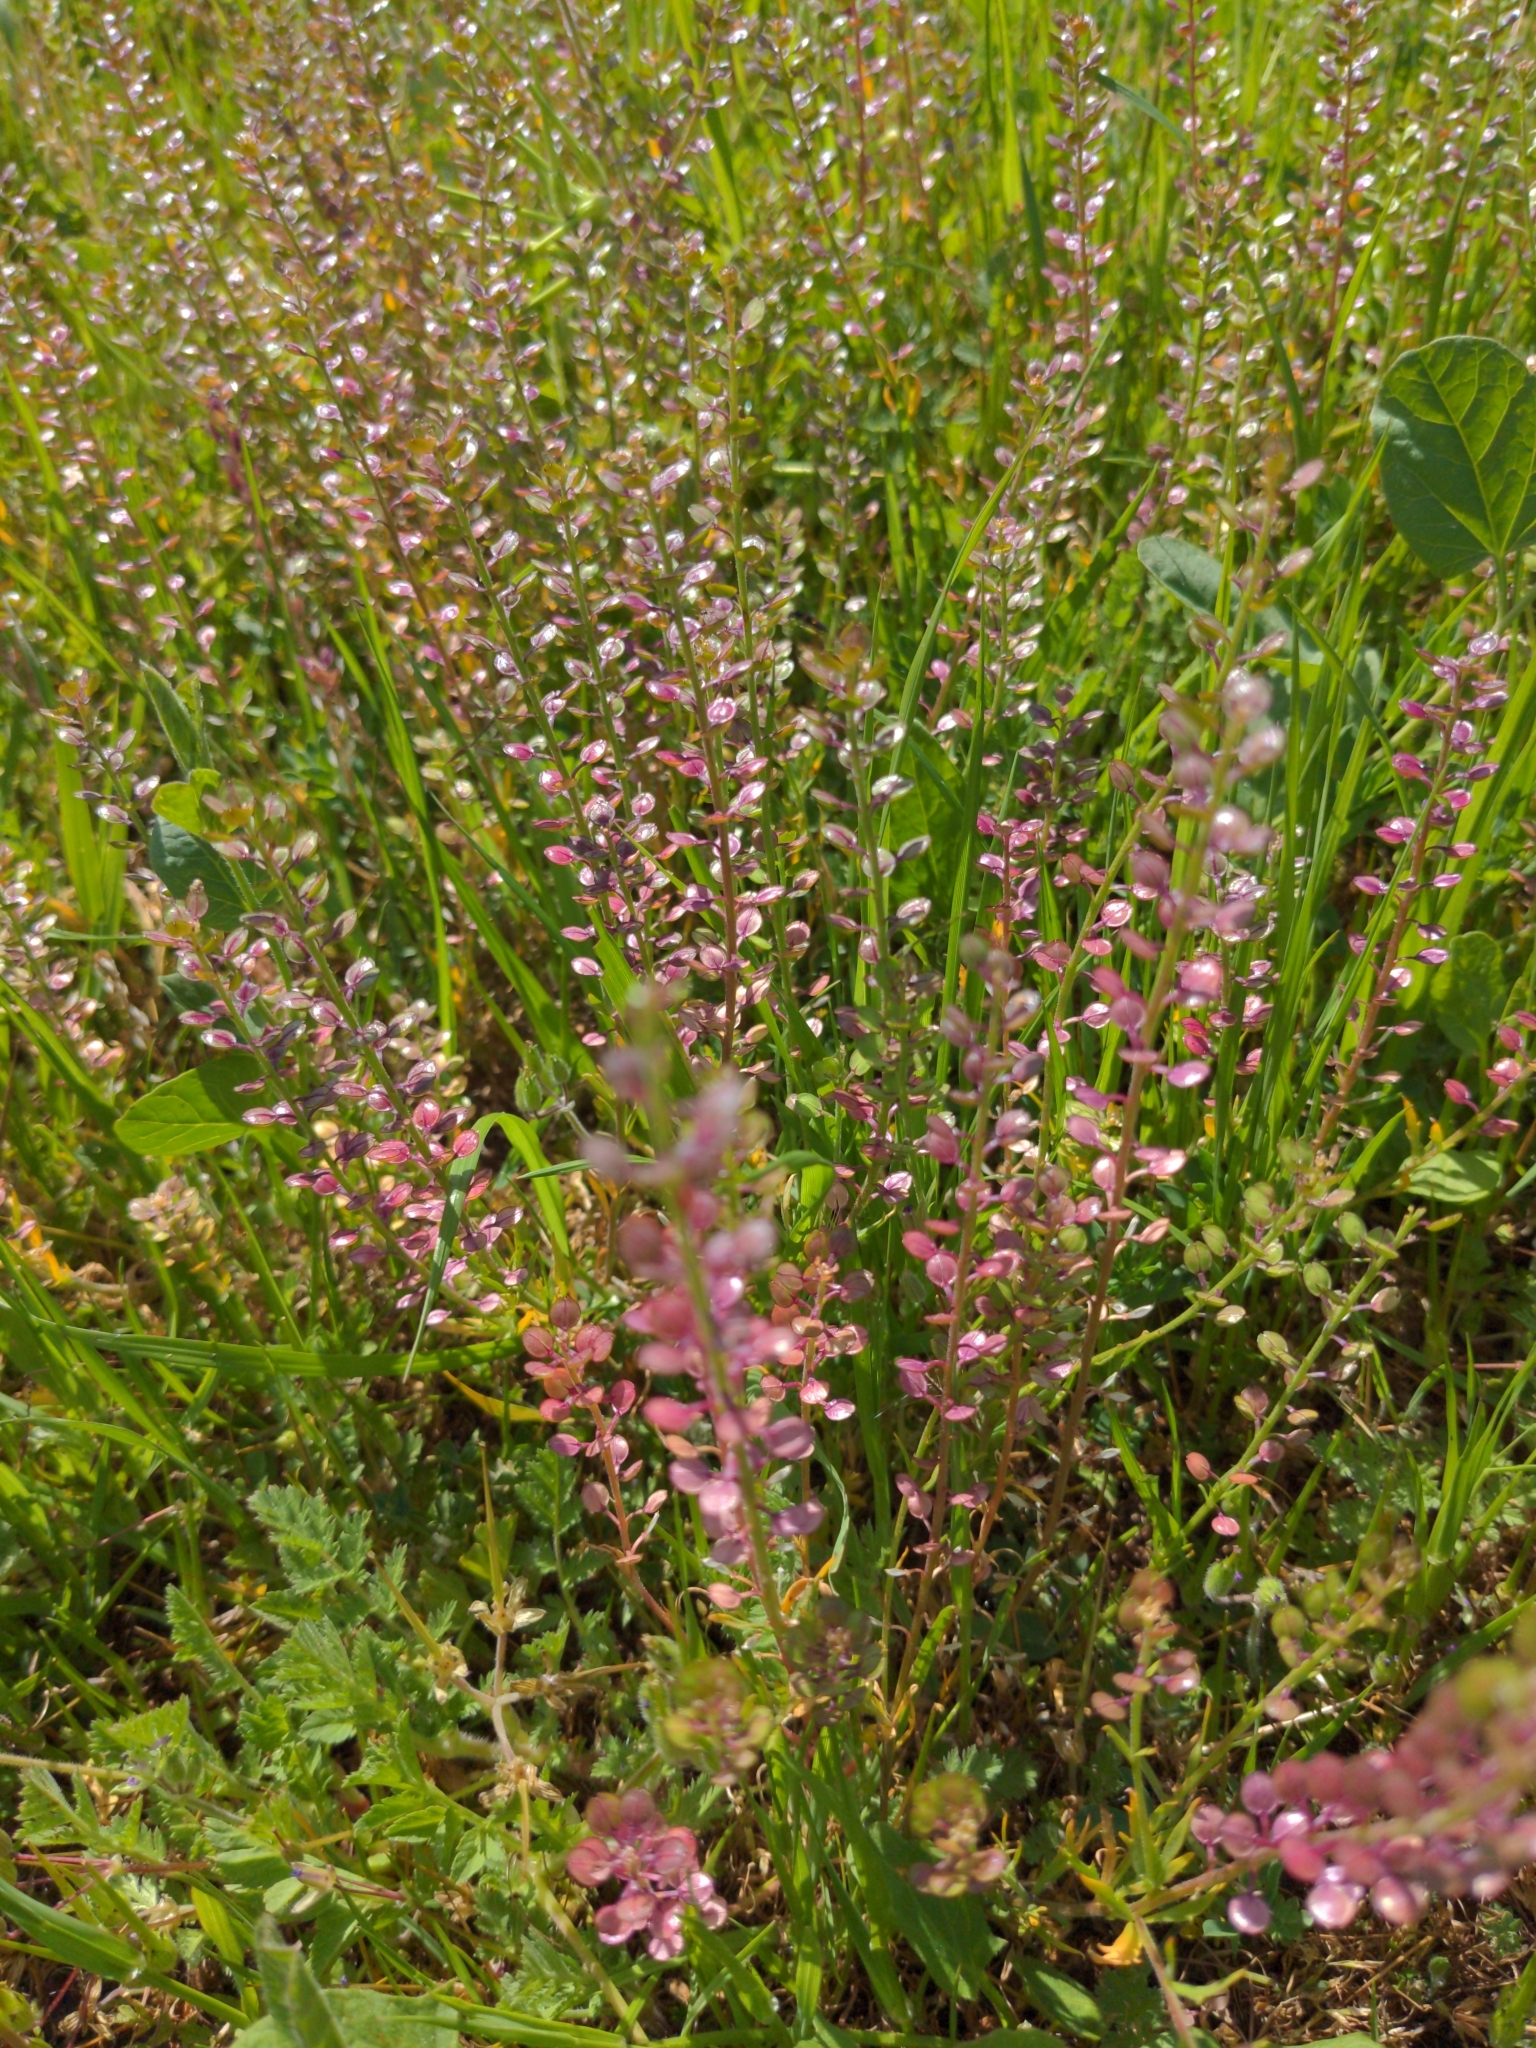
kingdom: Plantae
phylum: Tracheophyta
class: Magnoliopsida
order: Brassicales
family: Brassicaceae
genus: Lepidium
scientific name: Lepidium nitidum
